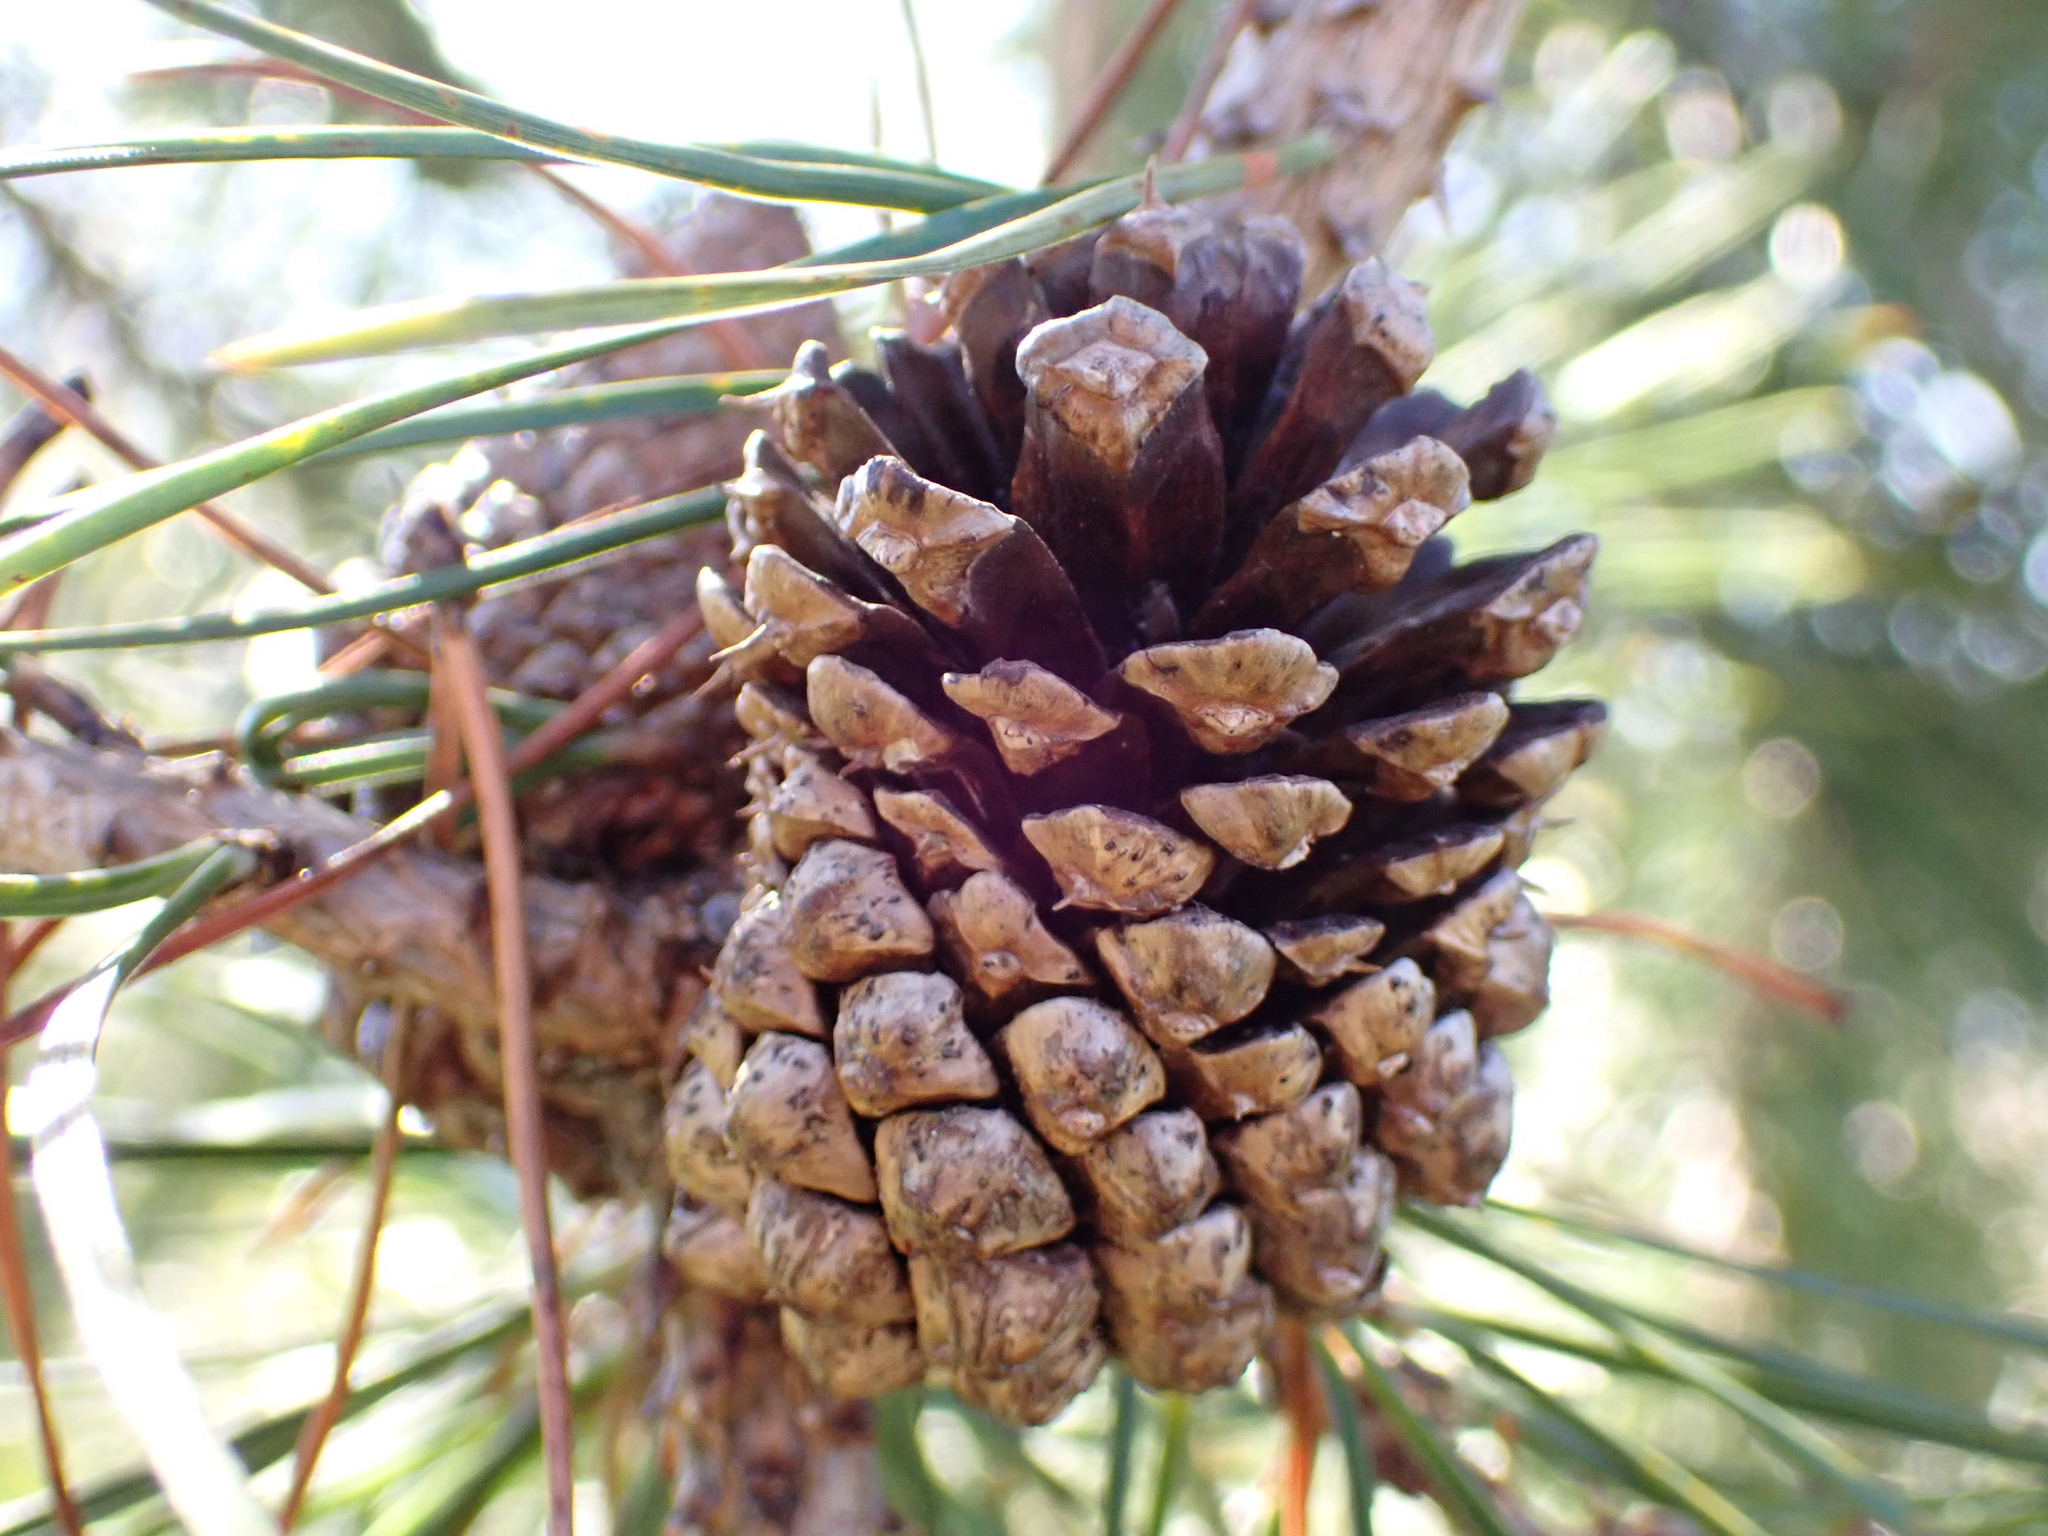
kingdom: Plantae
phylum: Tracheophyta
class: Pinopsida
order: Pinales
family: Pinaceae
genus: Pinus
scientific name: Pinus contorta
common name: Lodgepole pine
